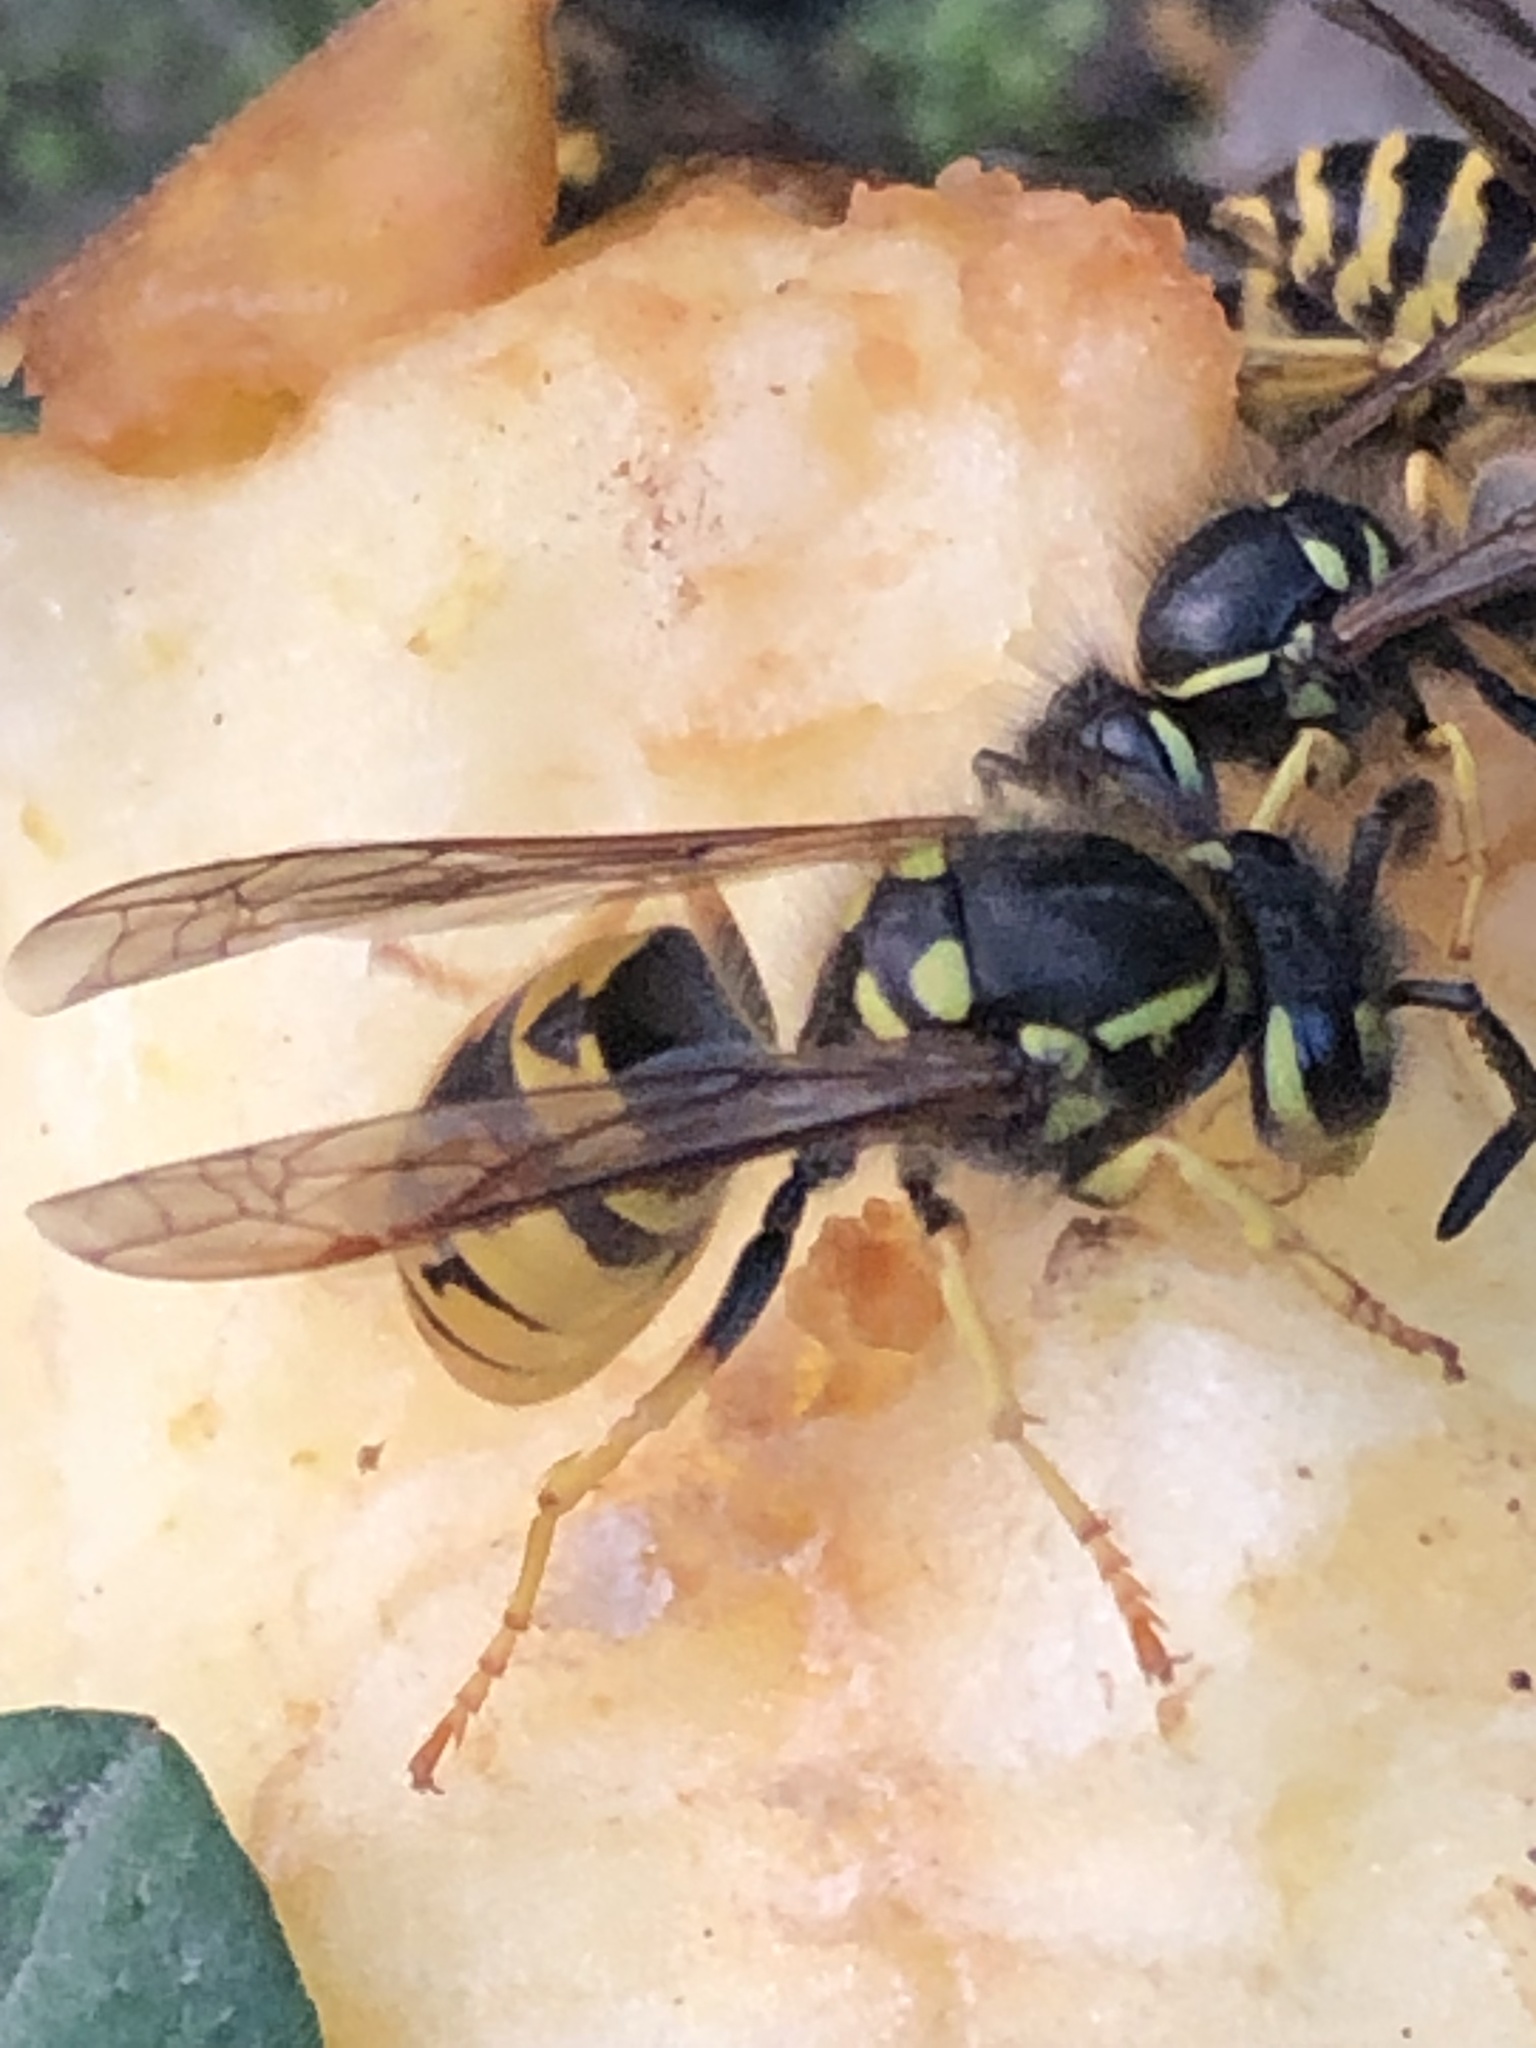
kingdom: Animalia
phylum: Arthropoda
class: Insecta
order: Hymenoptera
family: Vespidae
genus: Vespula
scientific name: Vespula germanica
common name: German wasp
